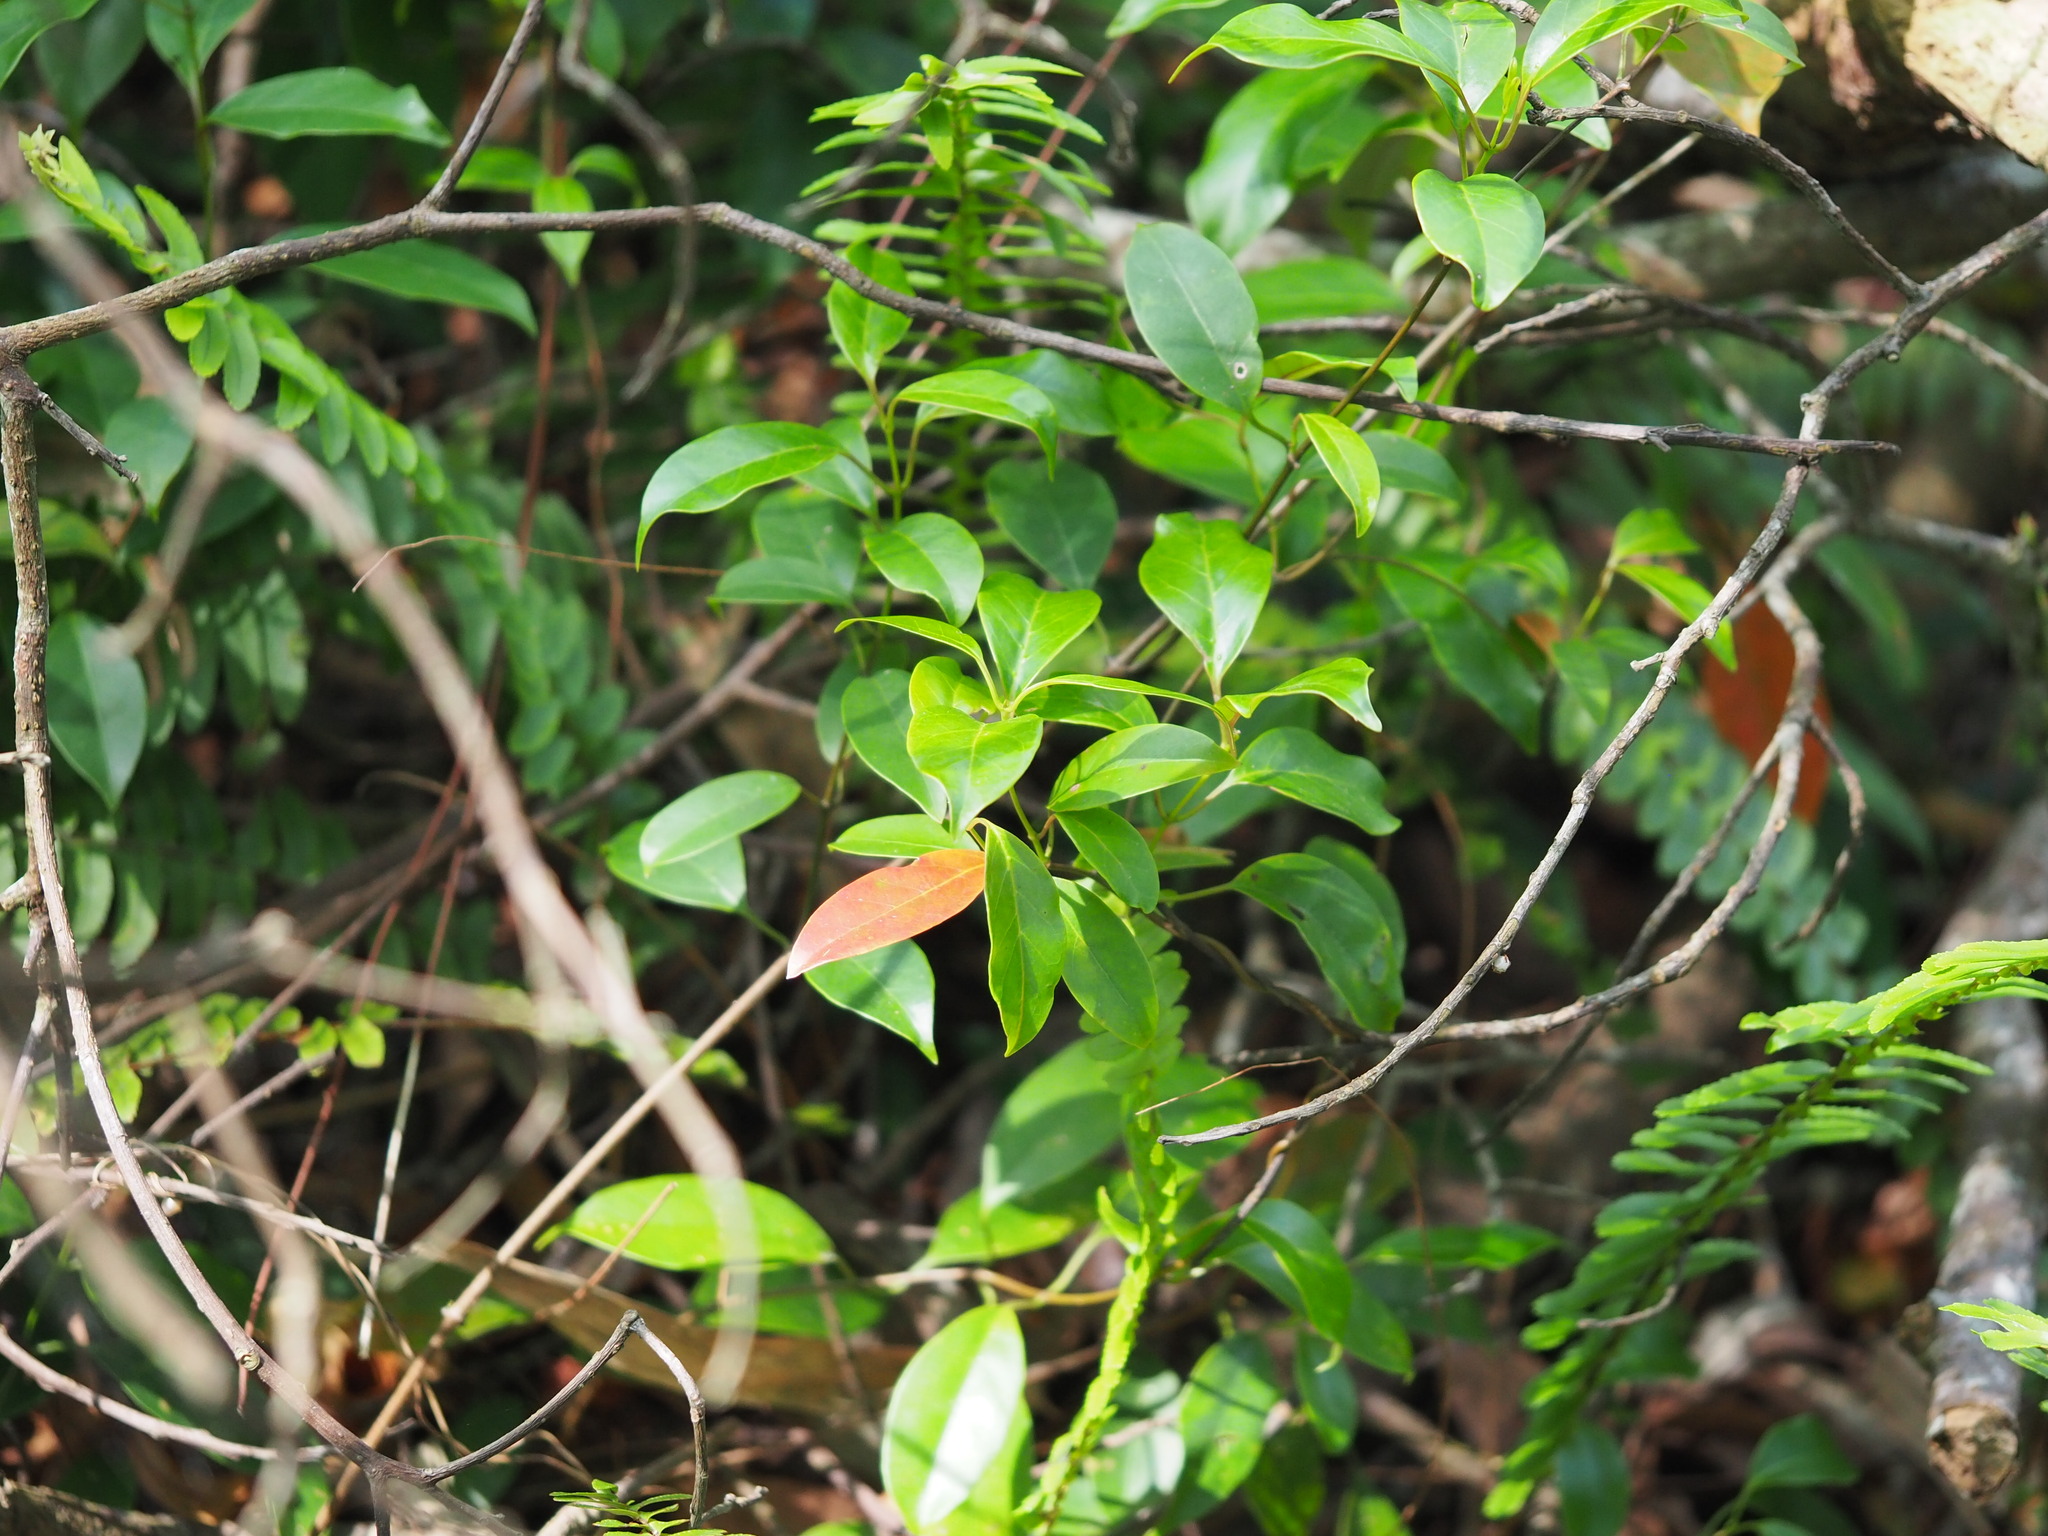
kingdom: Plantae
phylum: Tracheophyta
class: Magnoliopsida
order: Gentianales
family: Apocynaceae
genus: Urceola
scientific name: Urceola rosea
